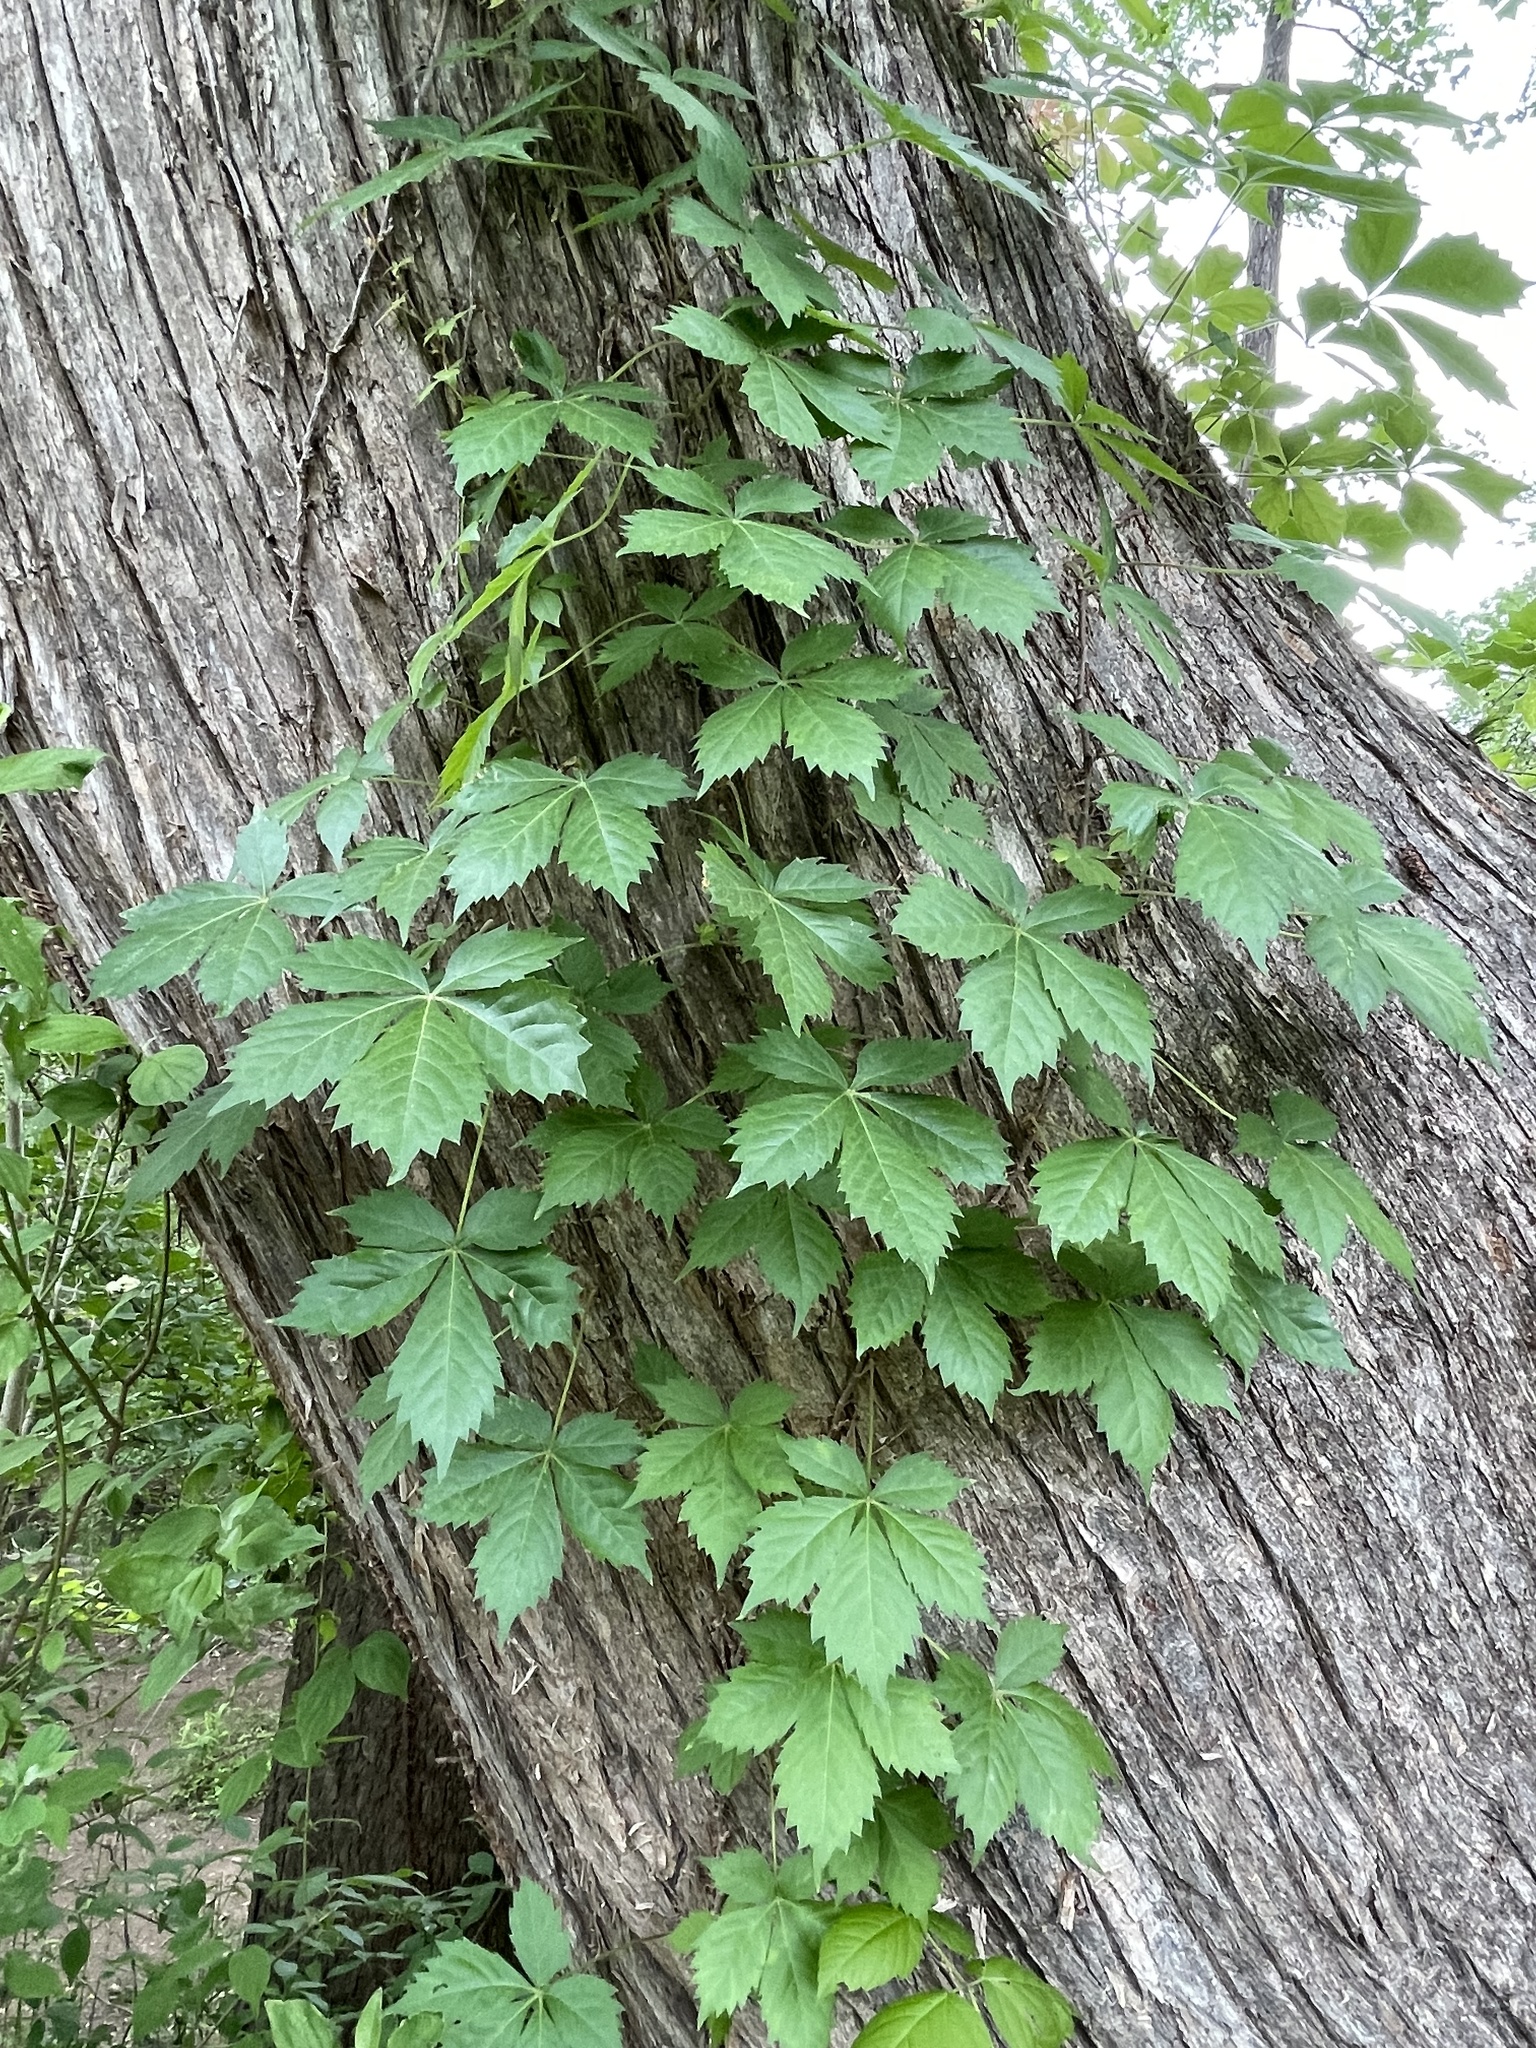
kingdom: Plantae
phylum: Tracheophyta
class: Magnoliopsida
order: Vitales
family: Vitaceae
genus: Parthenocissus
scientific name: Parthenocissus quinquefolia
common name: Virginia-creeper
